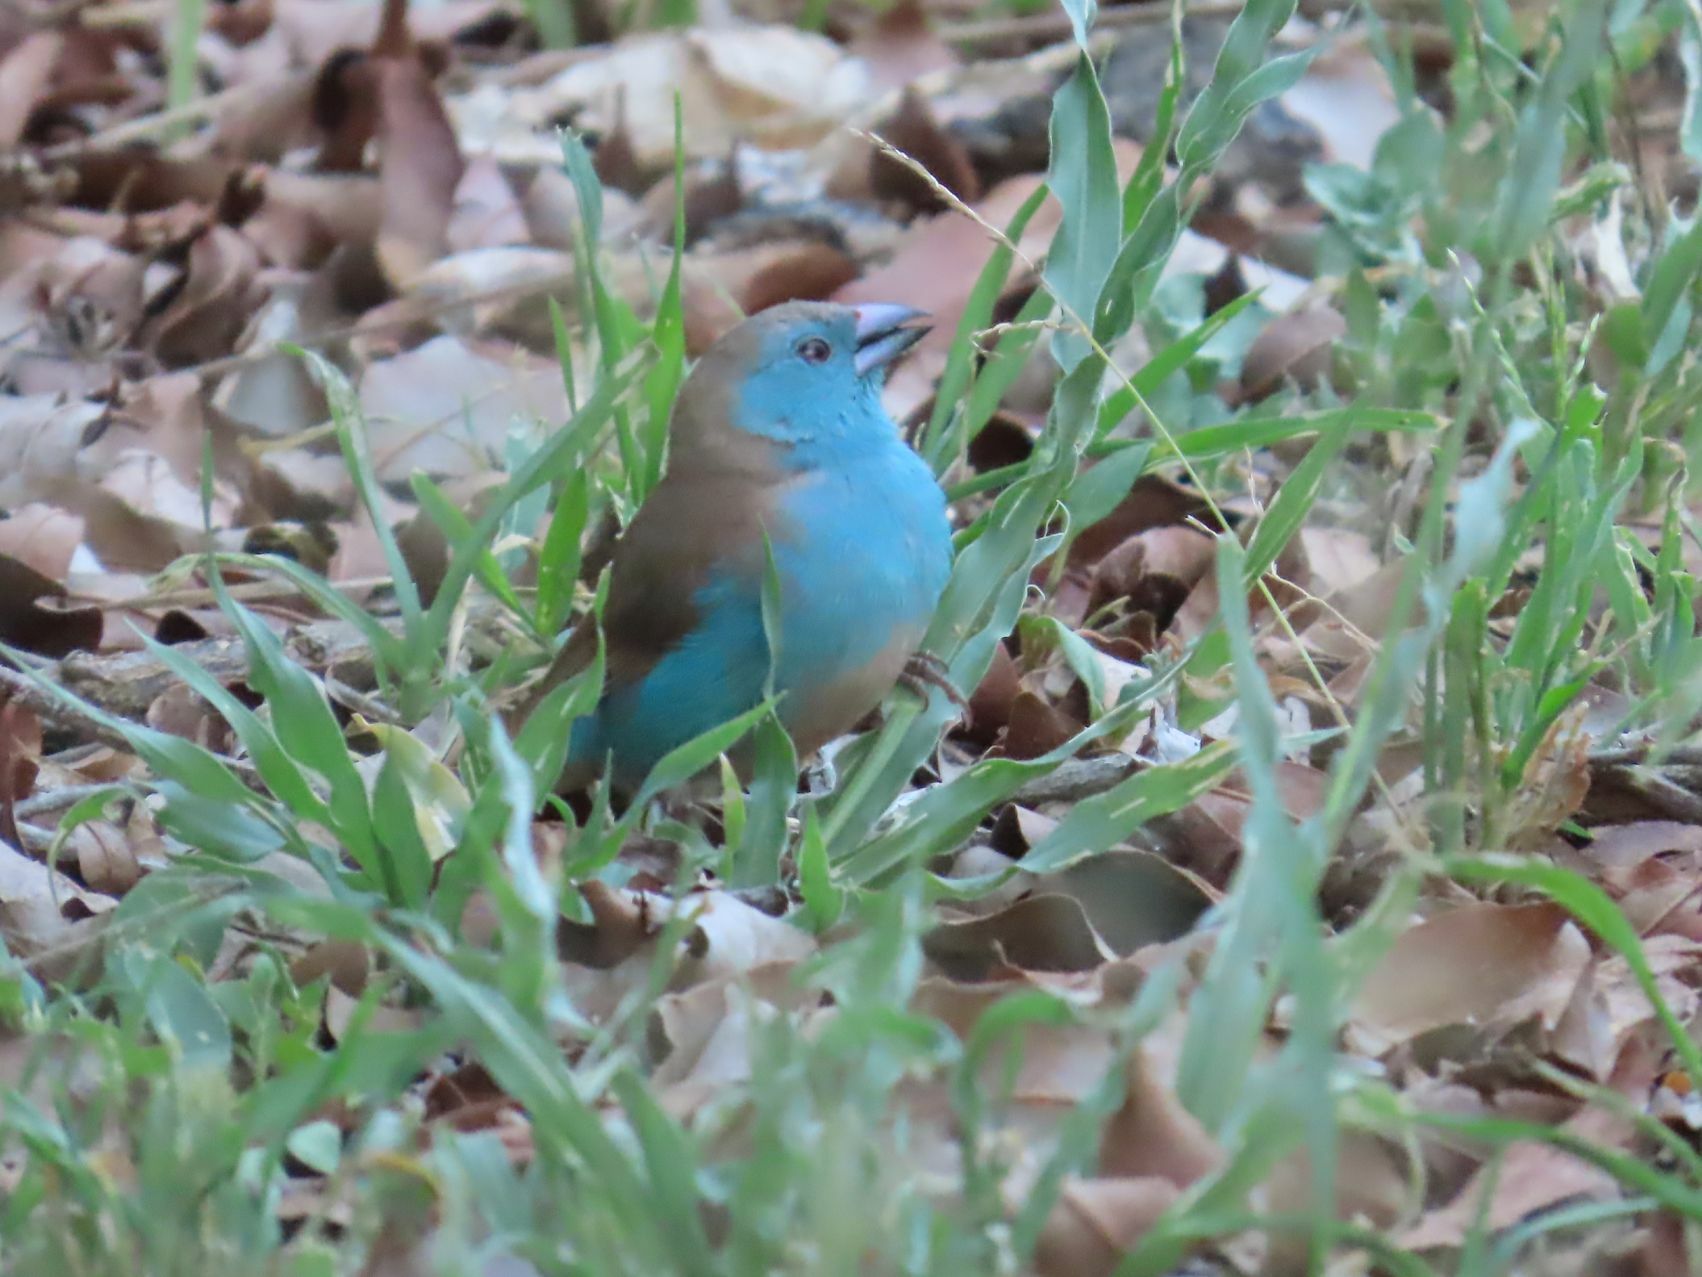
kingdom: Animalia
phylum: Chordata
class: Aves
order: Passeriformes
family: Estrildidae
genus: Uraeginthus
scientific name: Uraeginthus angolensis
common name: Blue waxbill
